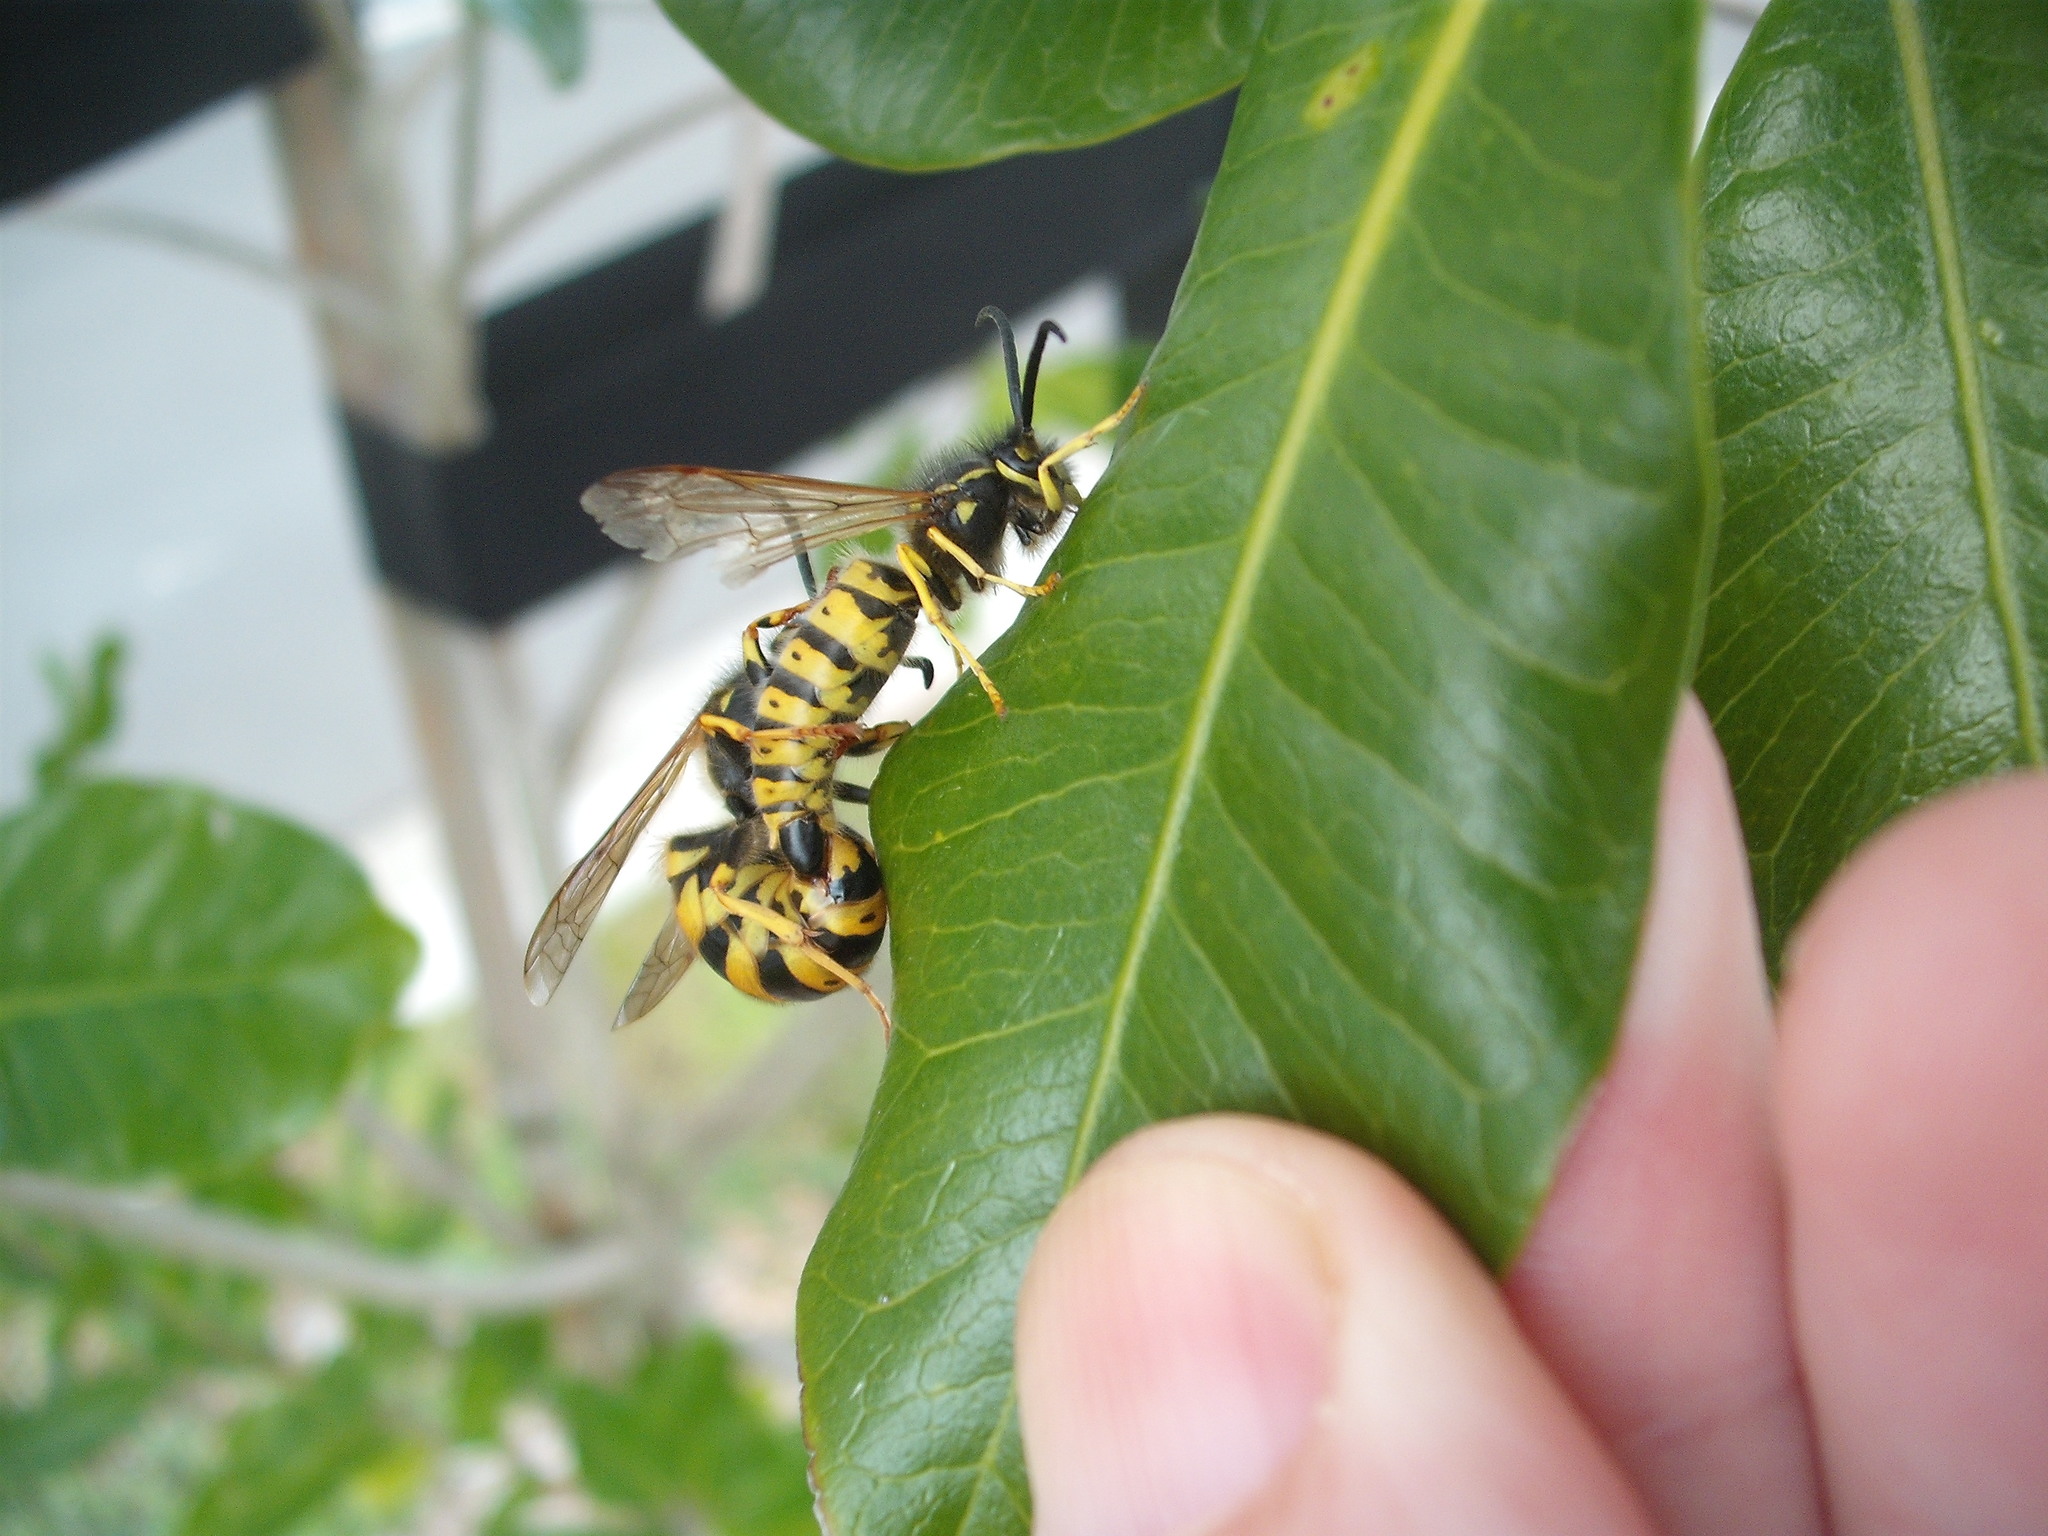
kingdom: Animalia
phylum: Arthropoda
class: Insecta
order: Hymenoptera
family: Vespidae
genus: Vespula
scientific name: Vespula germanica
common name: German wasp
